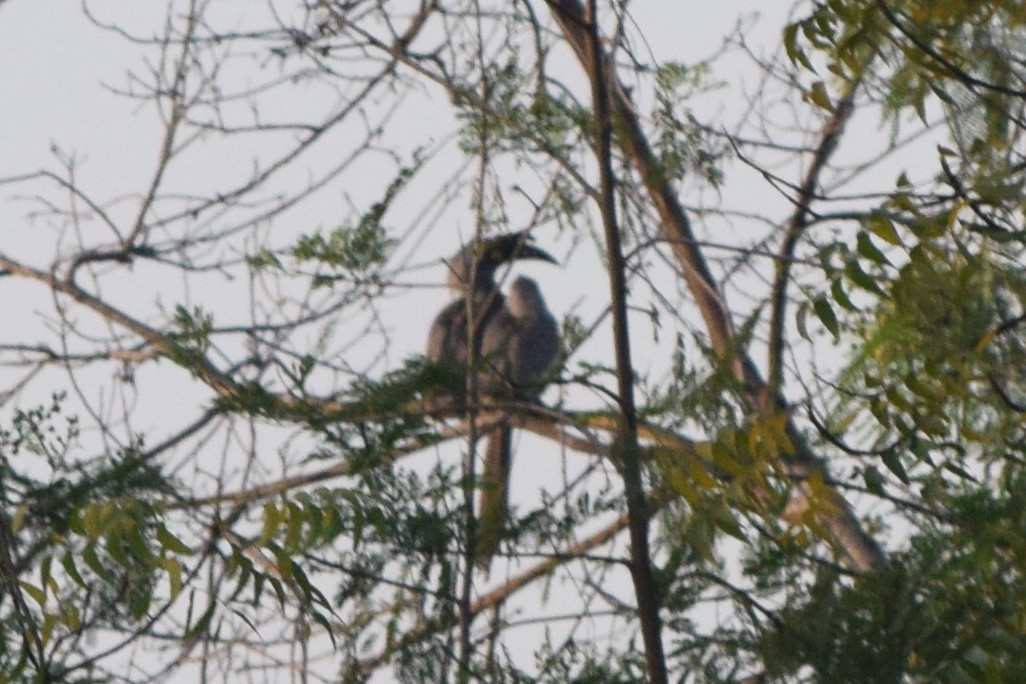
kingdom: Animalia
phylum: Chordata
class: Aves
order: Bucerotiformes
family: Bucerotidae
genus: Ocyceros
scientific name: Ocyceros birostris
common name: Indian grey hornbill
